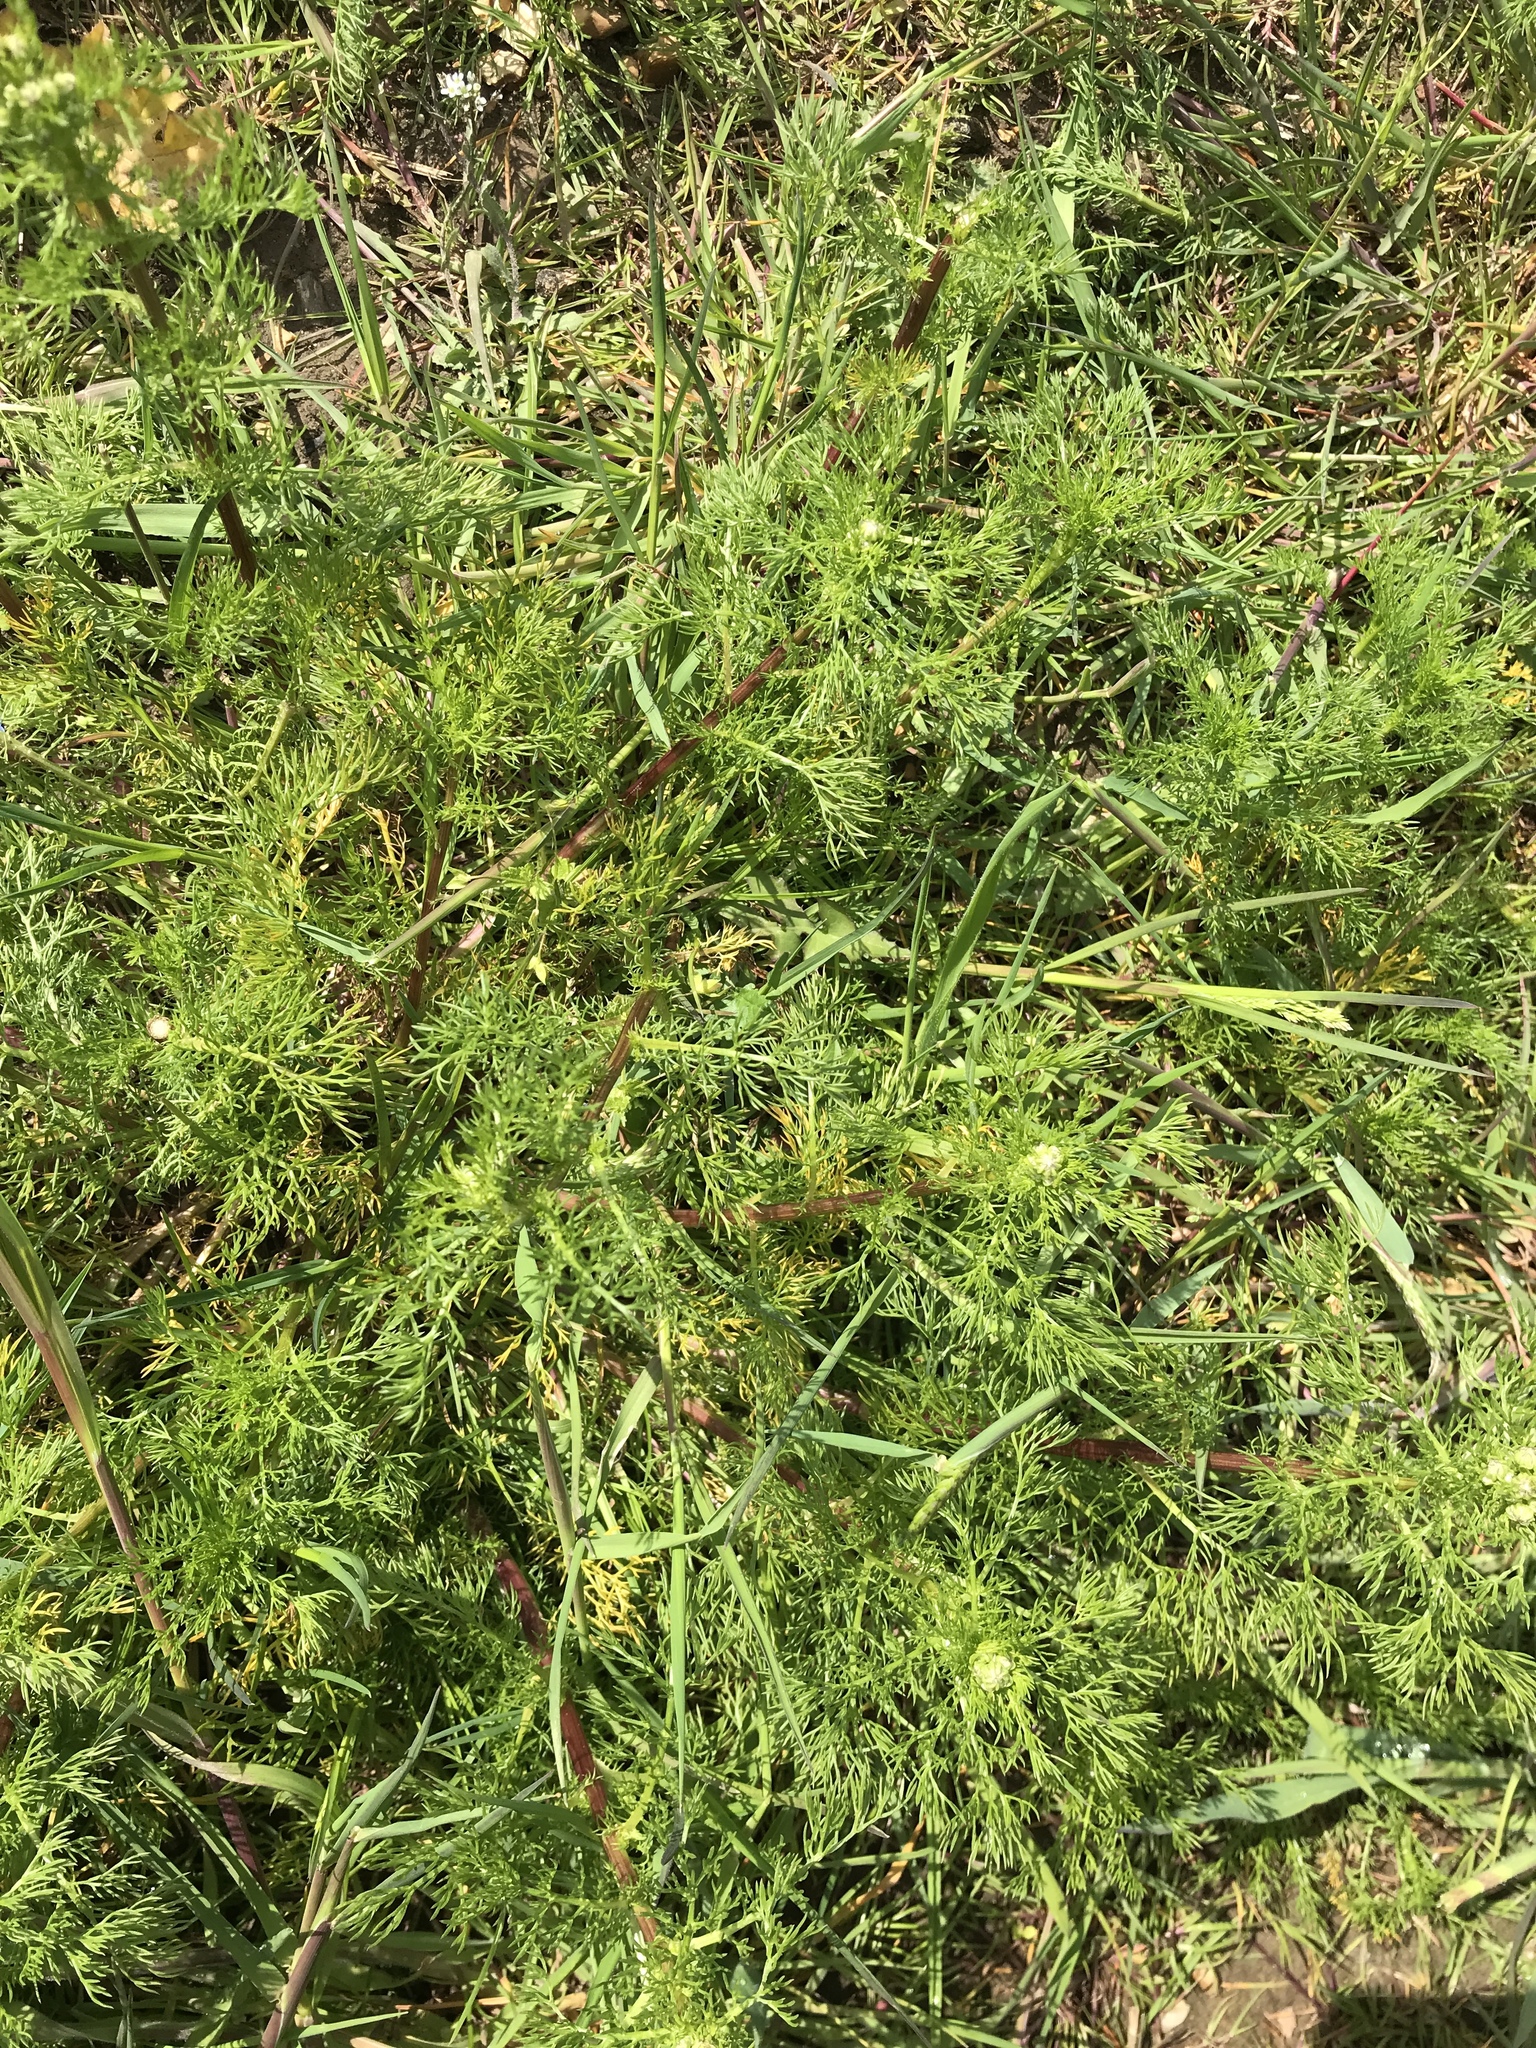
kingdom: Plantae
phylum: Tracheophyta
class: Magnoliopsida
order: Asterales
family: Asteraceae
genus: Matricaria
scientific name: Matricaria discoidea
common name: Disc mayweed
